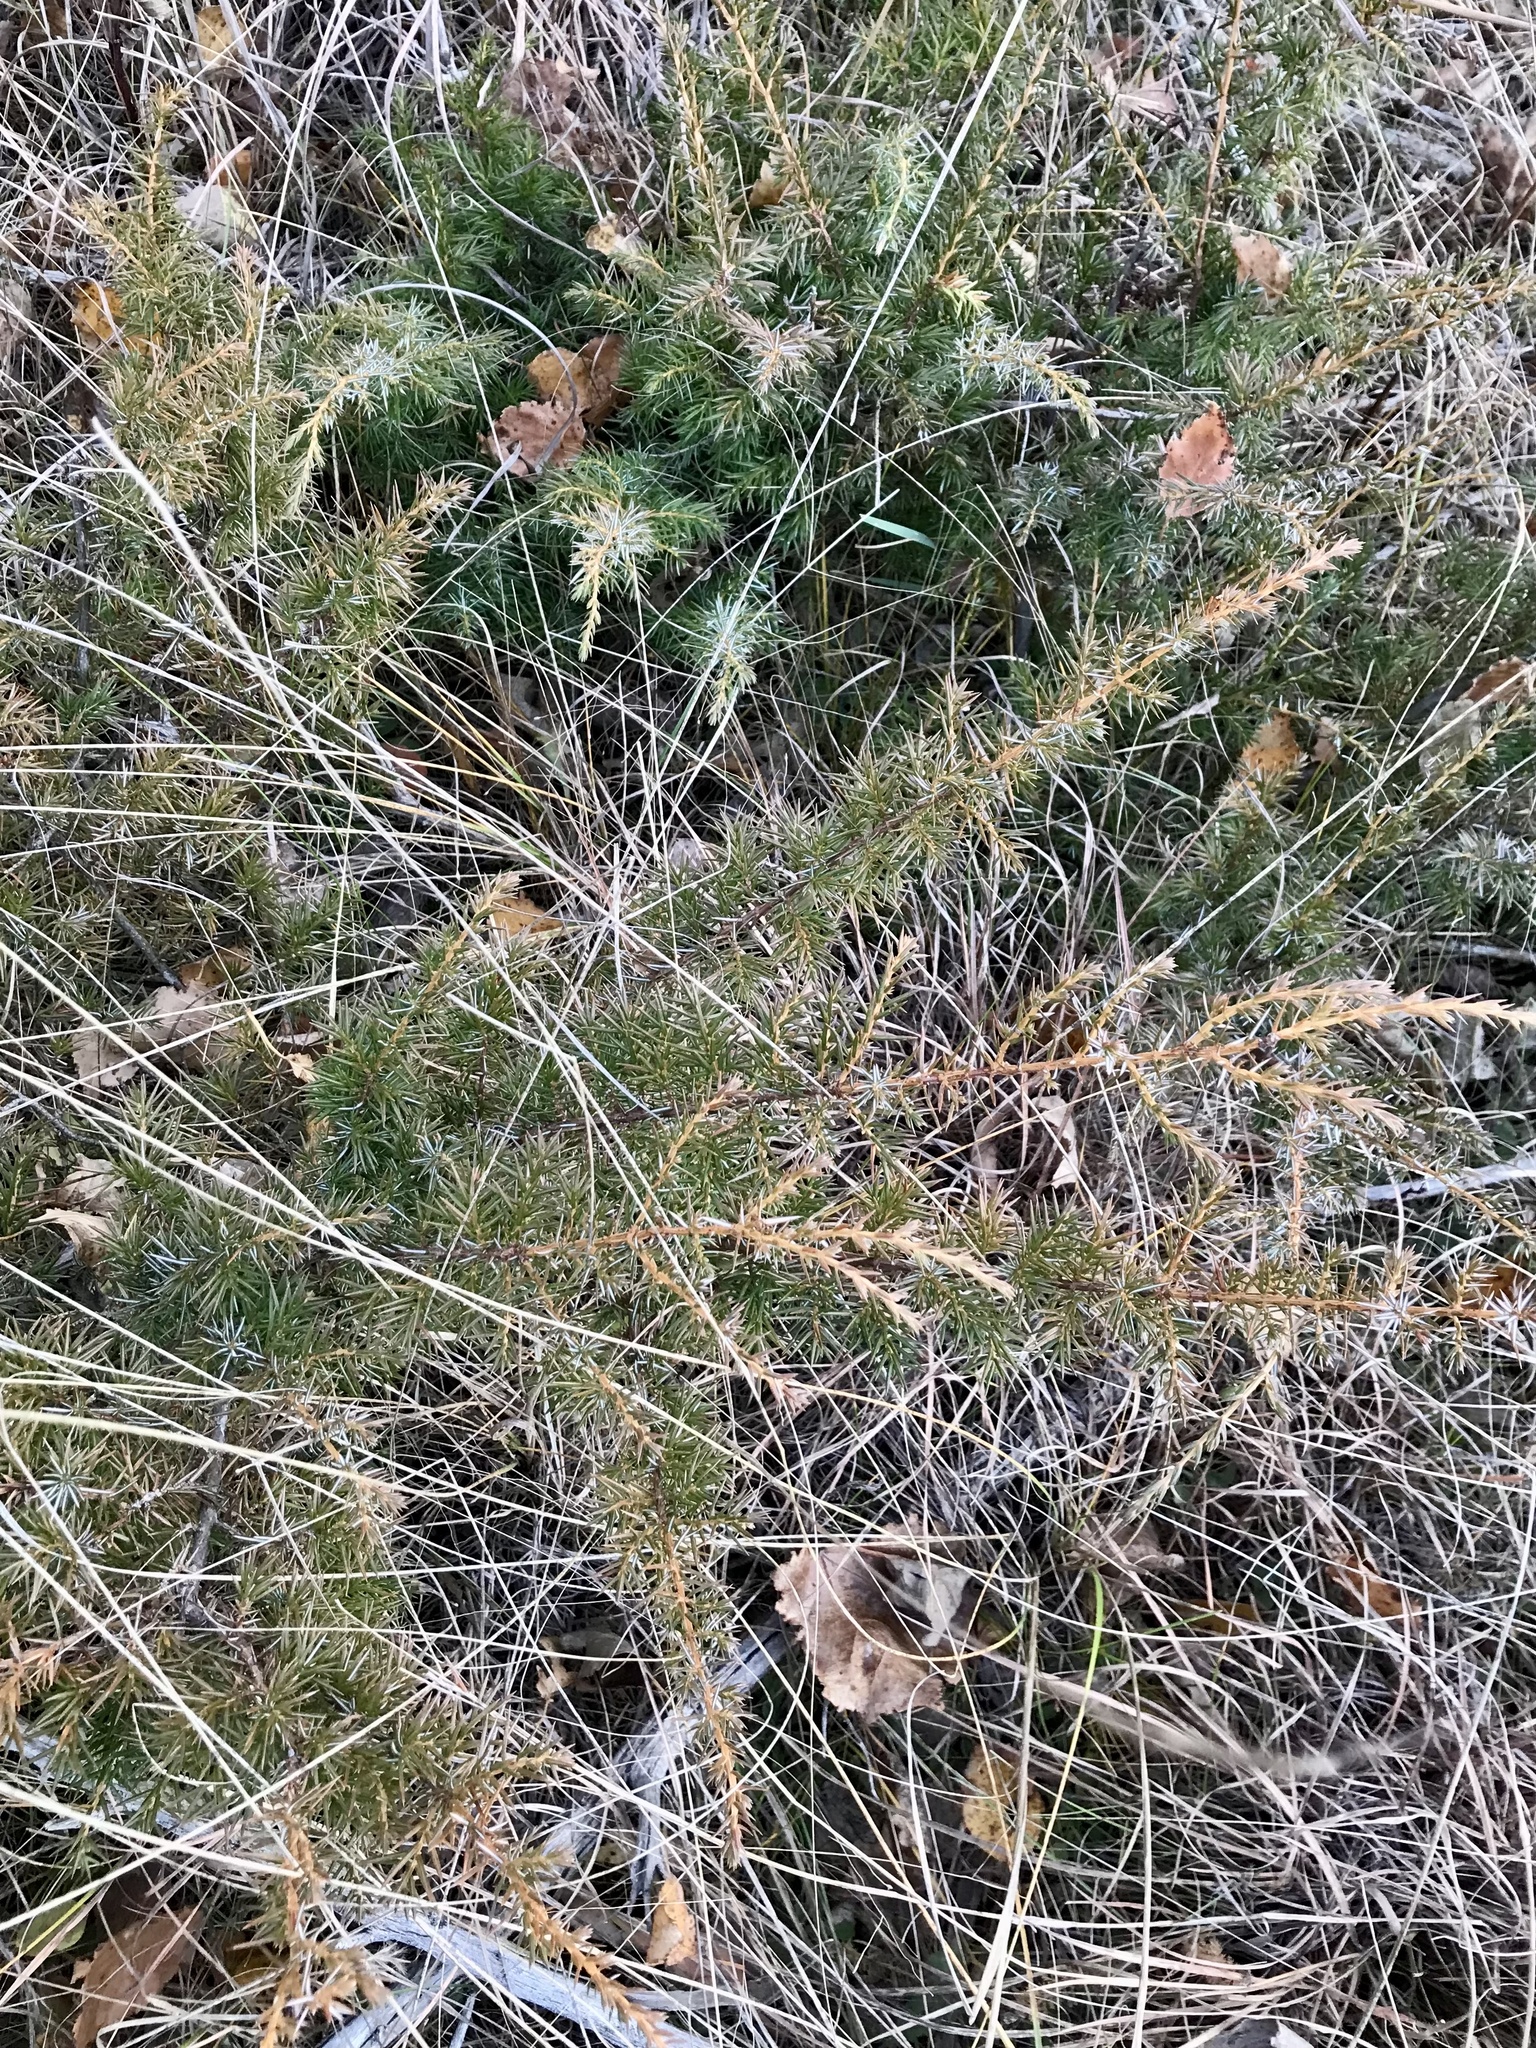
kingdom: Plantae
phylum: Tracheophyta
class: Pinopsida
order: Pinales
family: Cupressaceae
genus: Juniperus
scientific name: Juniperus communis
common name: Common juniper
